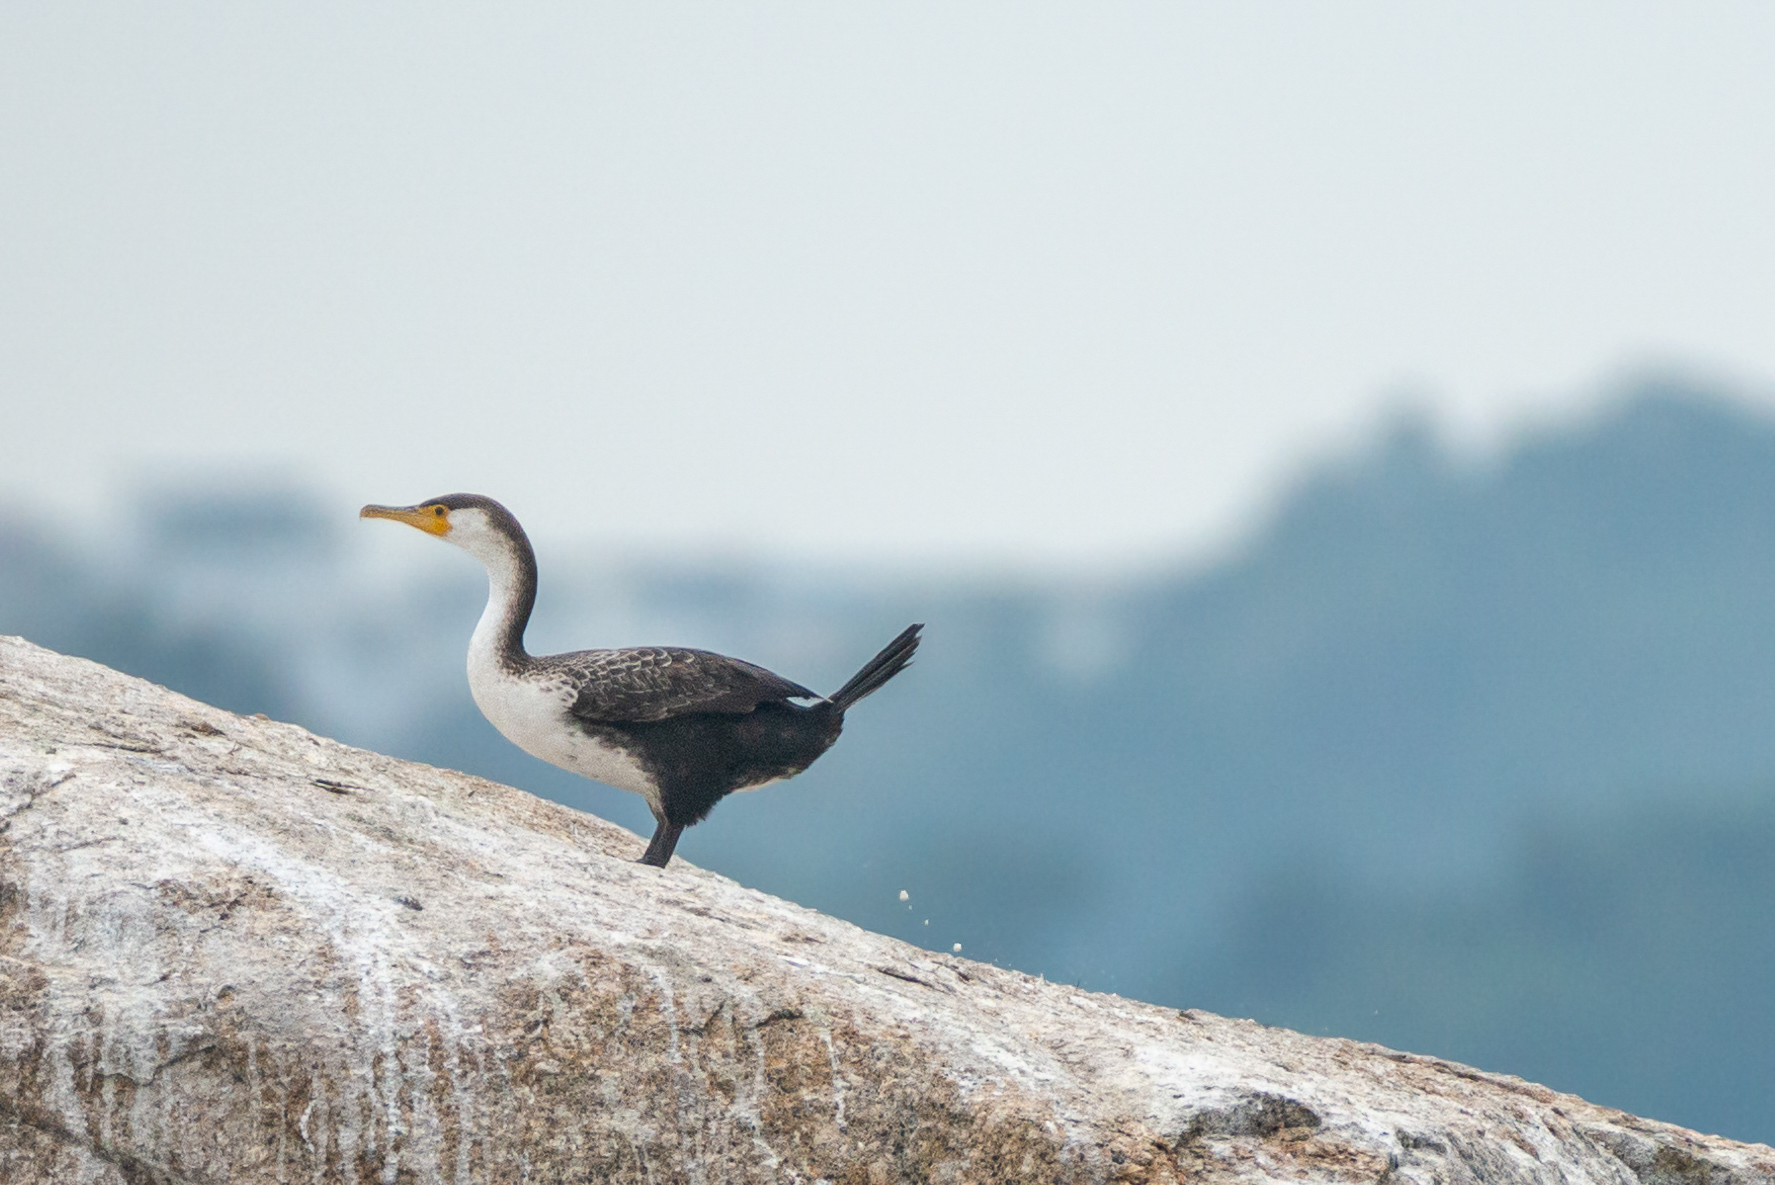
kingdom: Animalia
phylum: Chordata
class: Aves
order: Suliformes
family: Phalacrocoracidae
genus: Phalacrocorax
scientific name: Phalacrocorax capillatus
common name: Japanese cormorant
